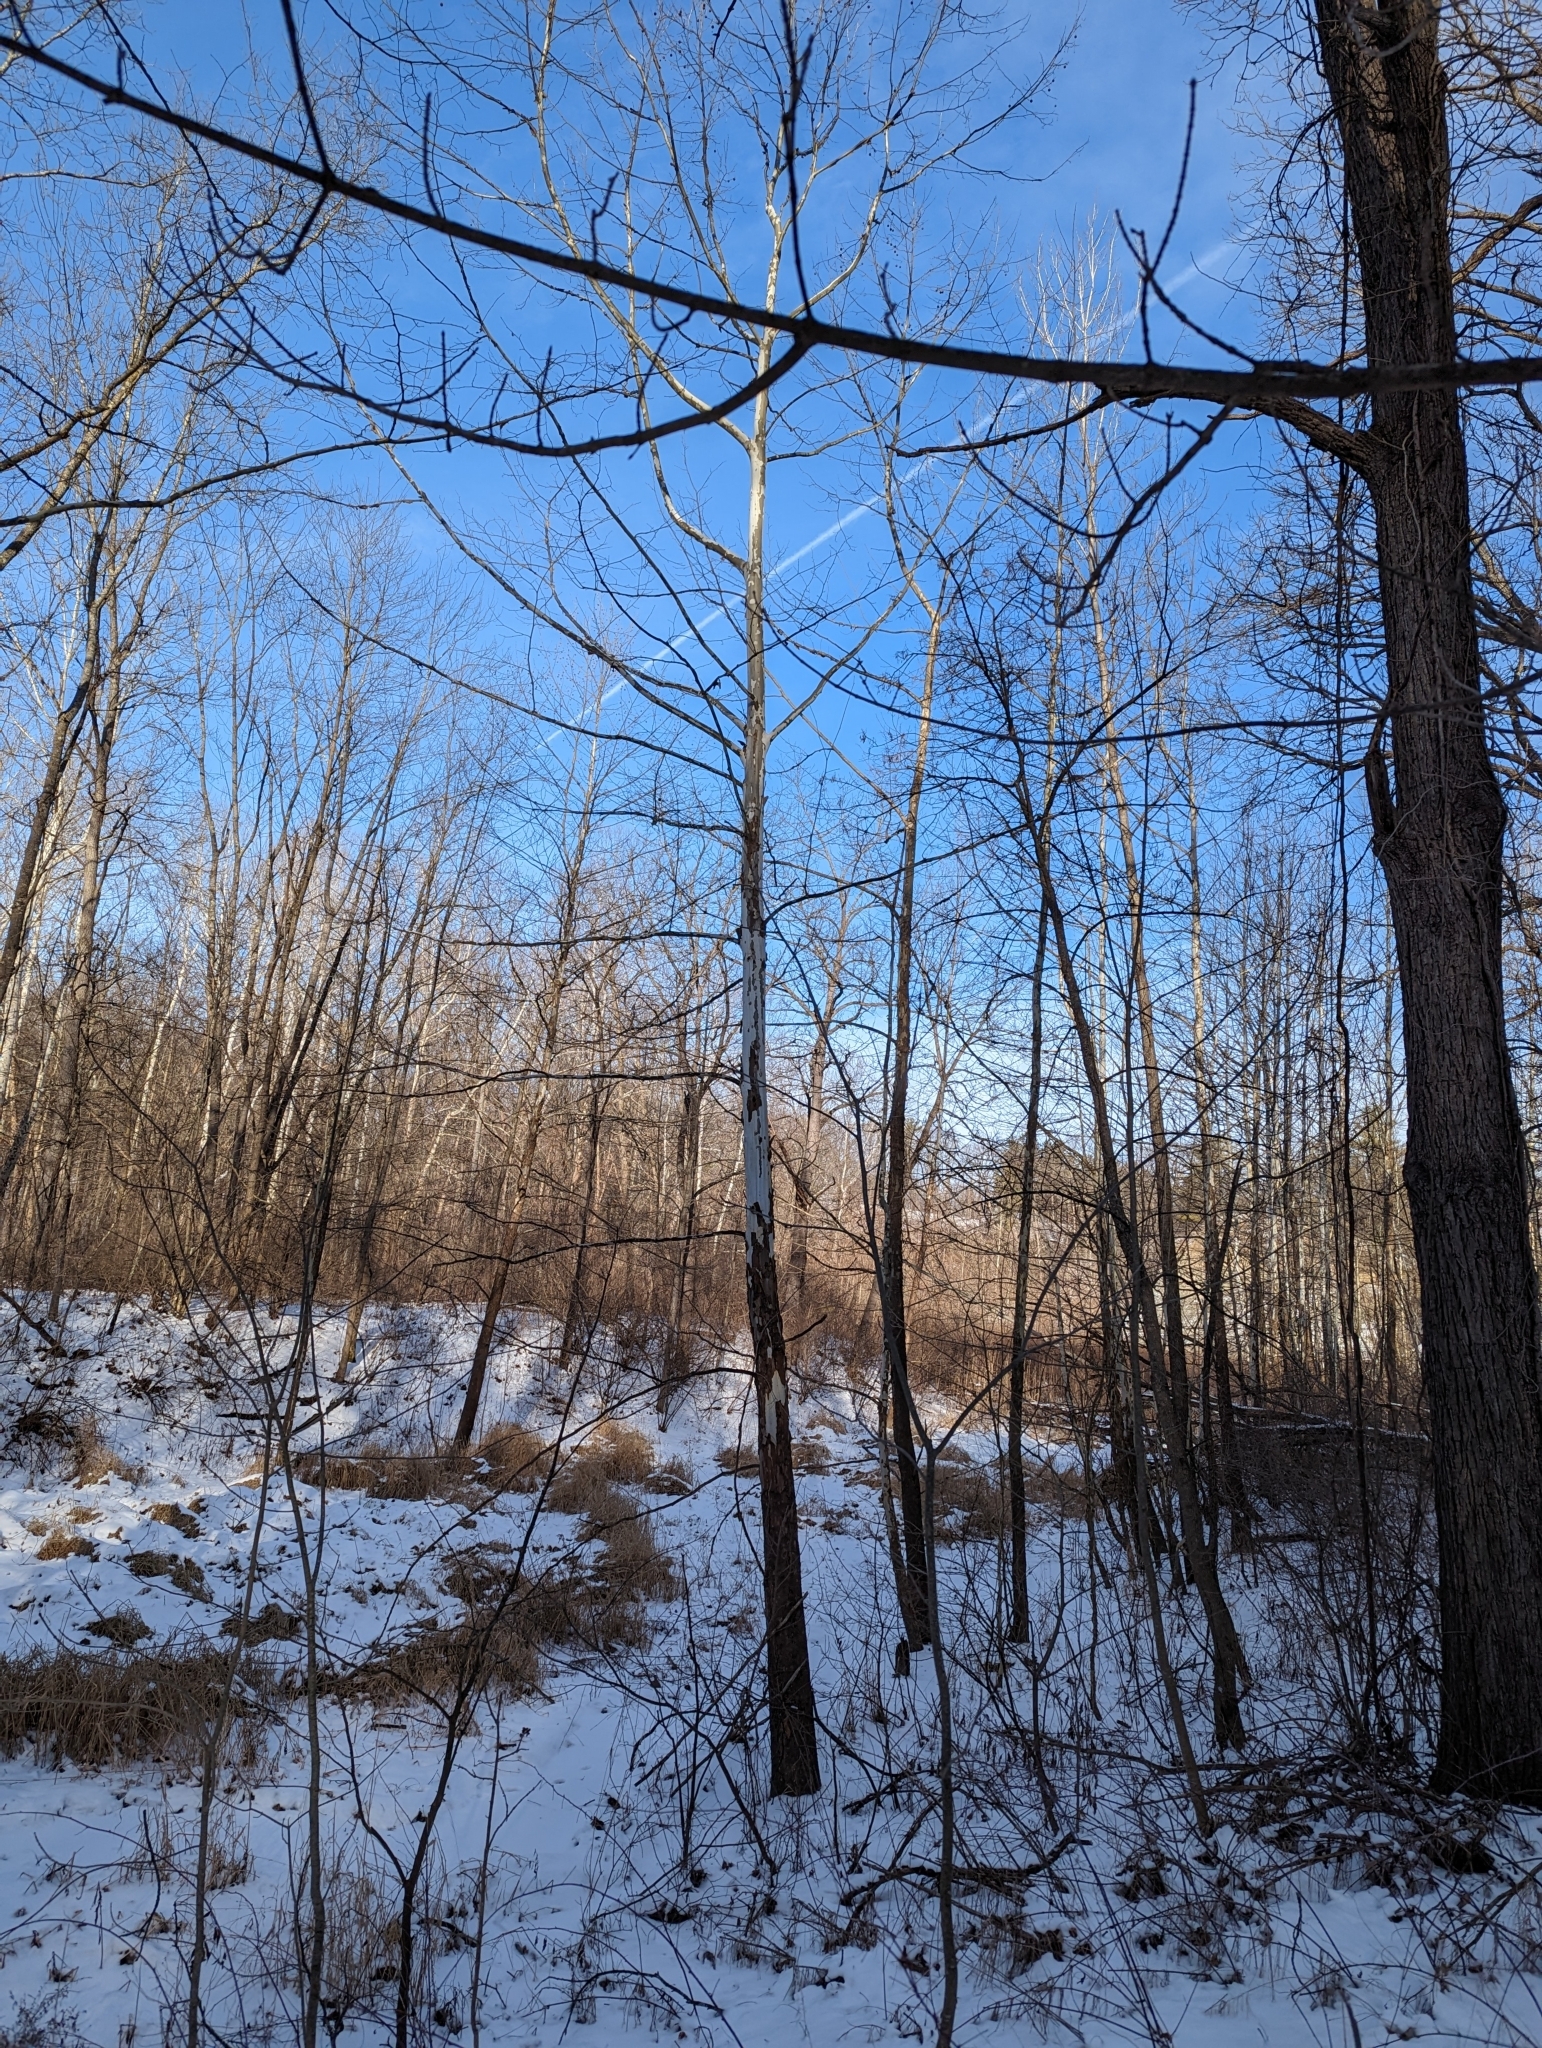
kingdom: Plantae
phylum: Tracheophyta
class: Magnoliopsida
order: Proteales
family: Platanaceae
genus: Platanus
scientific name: Platanus occidentalis
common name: American sycamore
